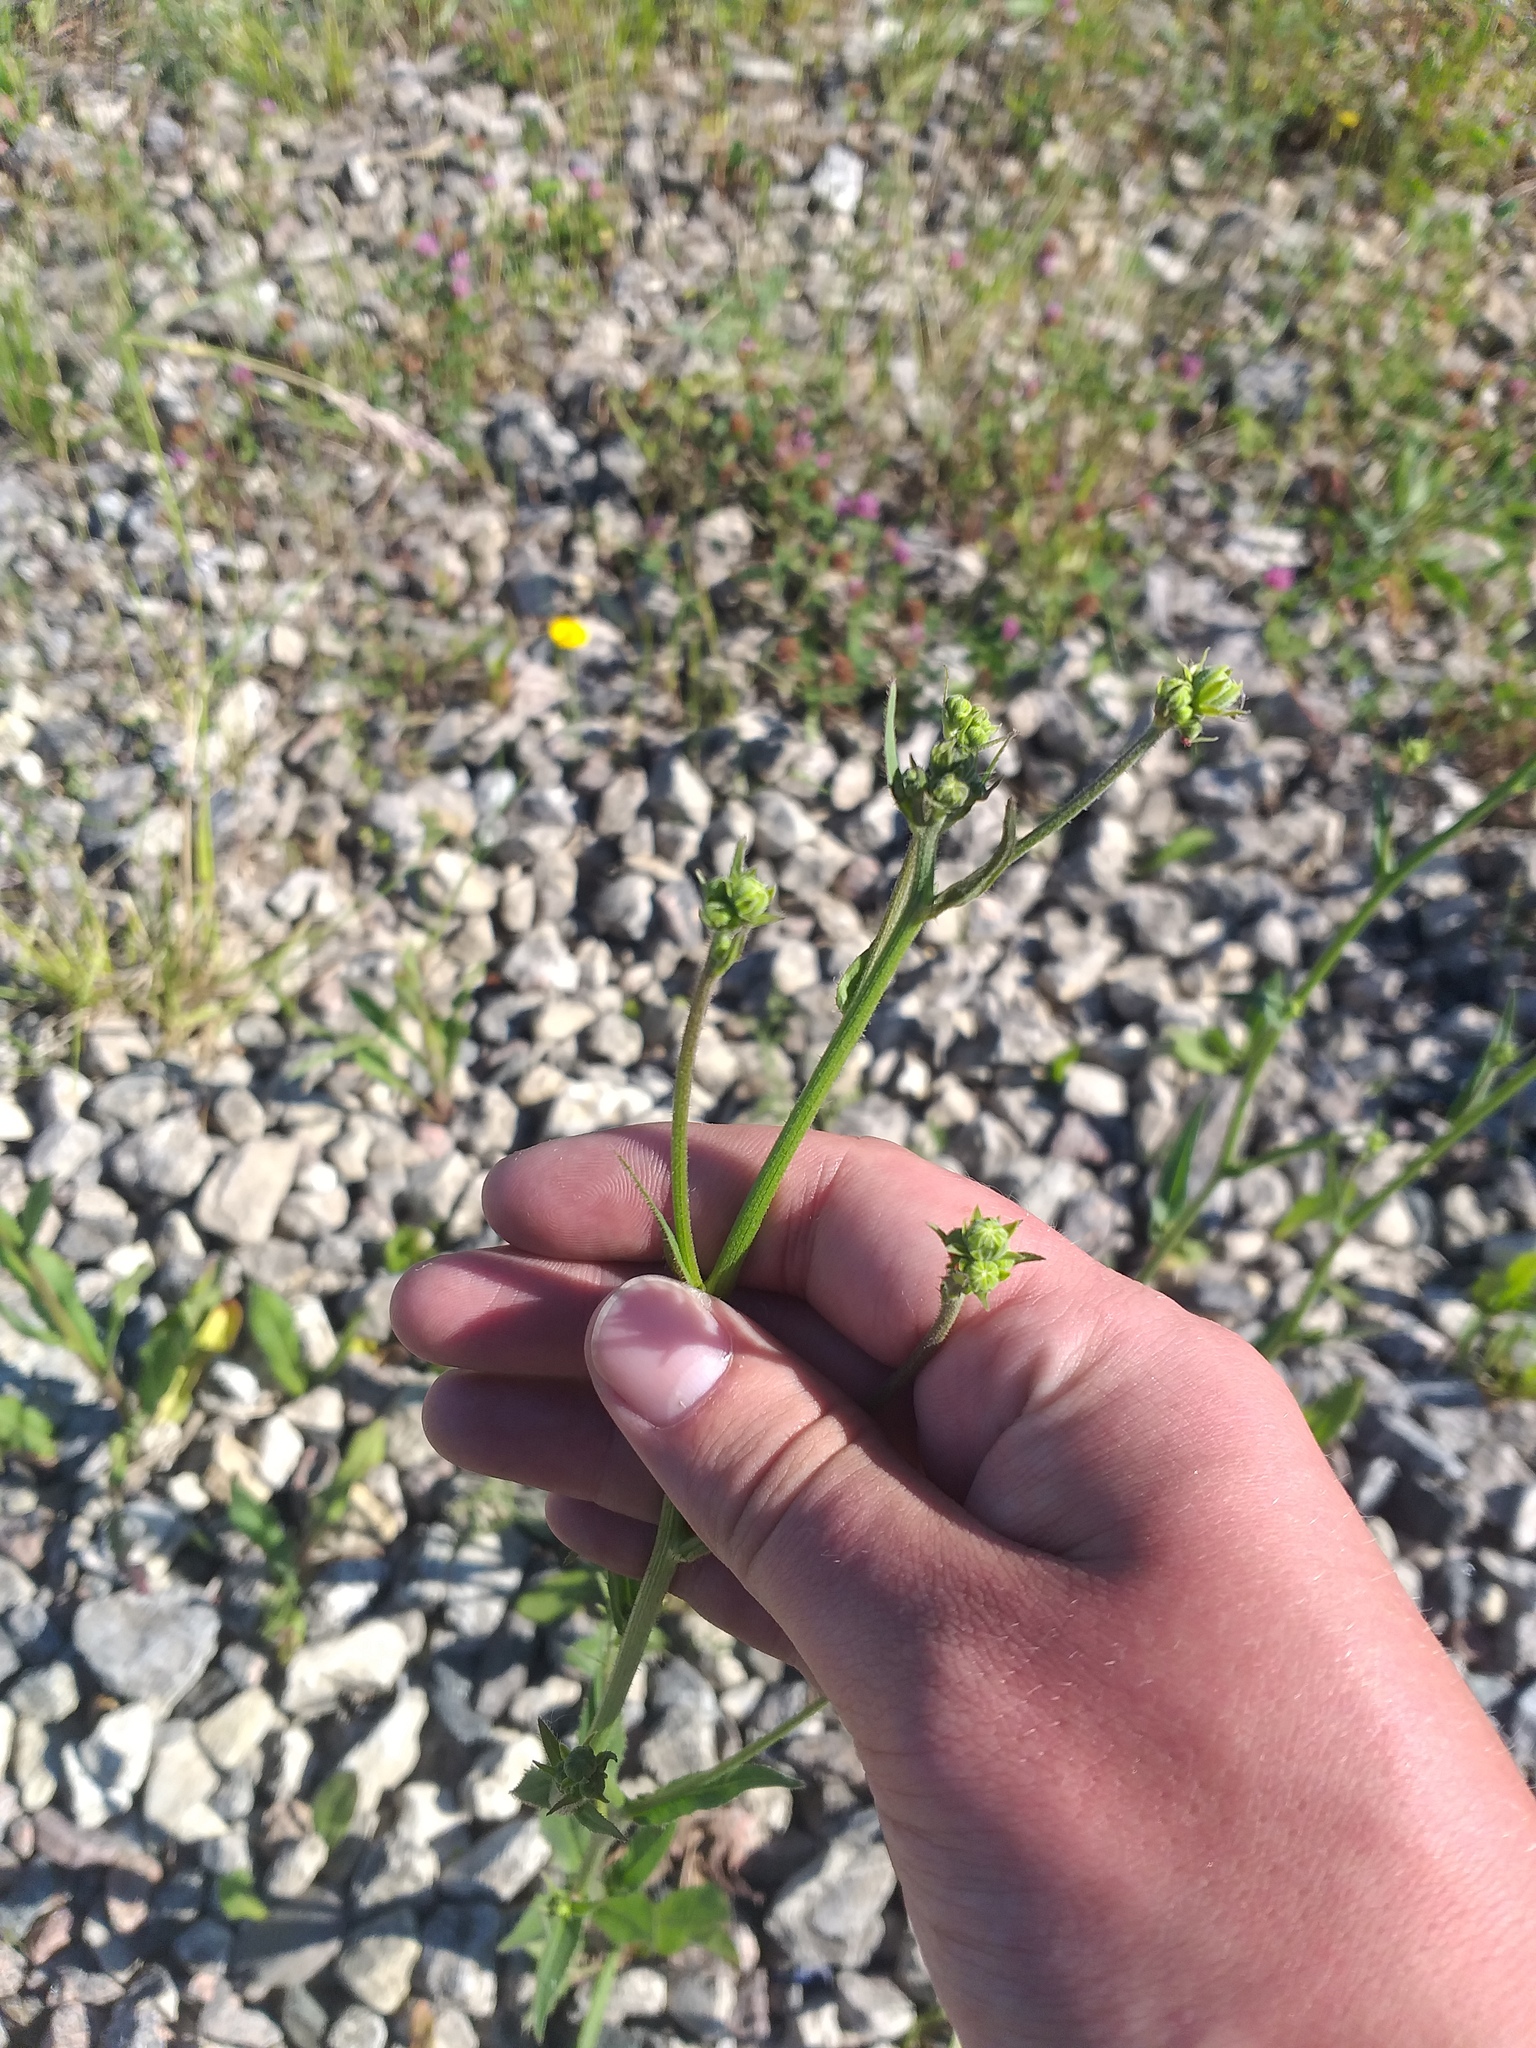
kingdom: Plantae
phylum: Tracheophyta
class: Magnoliopsida
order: Asterales
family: Asteraceae
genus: Picris
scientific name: Picris hieracioides
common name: Hawkweed oxtongue
